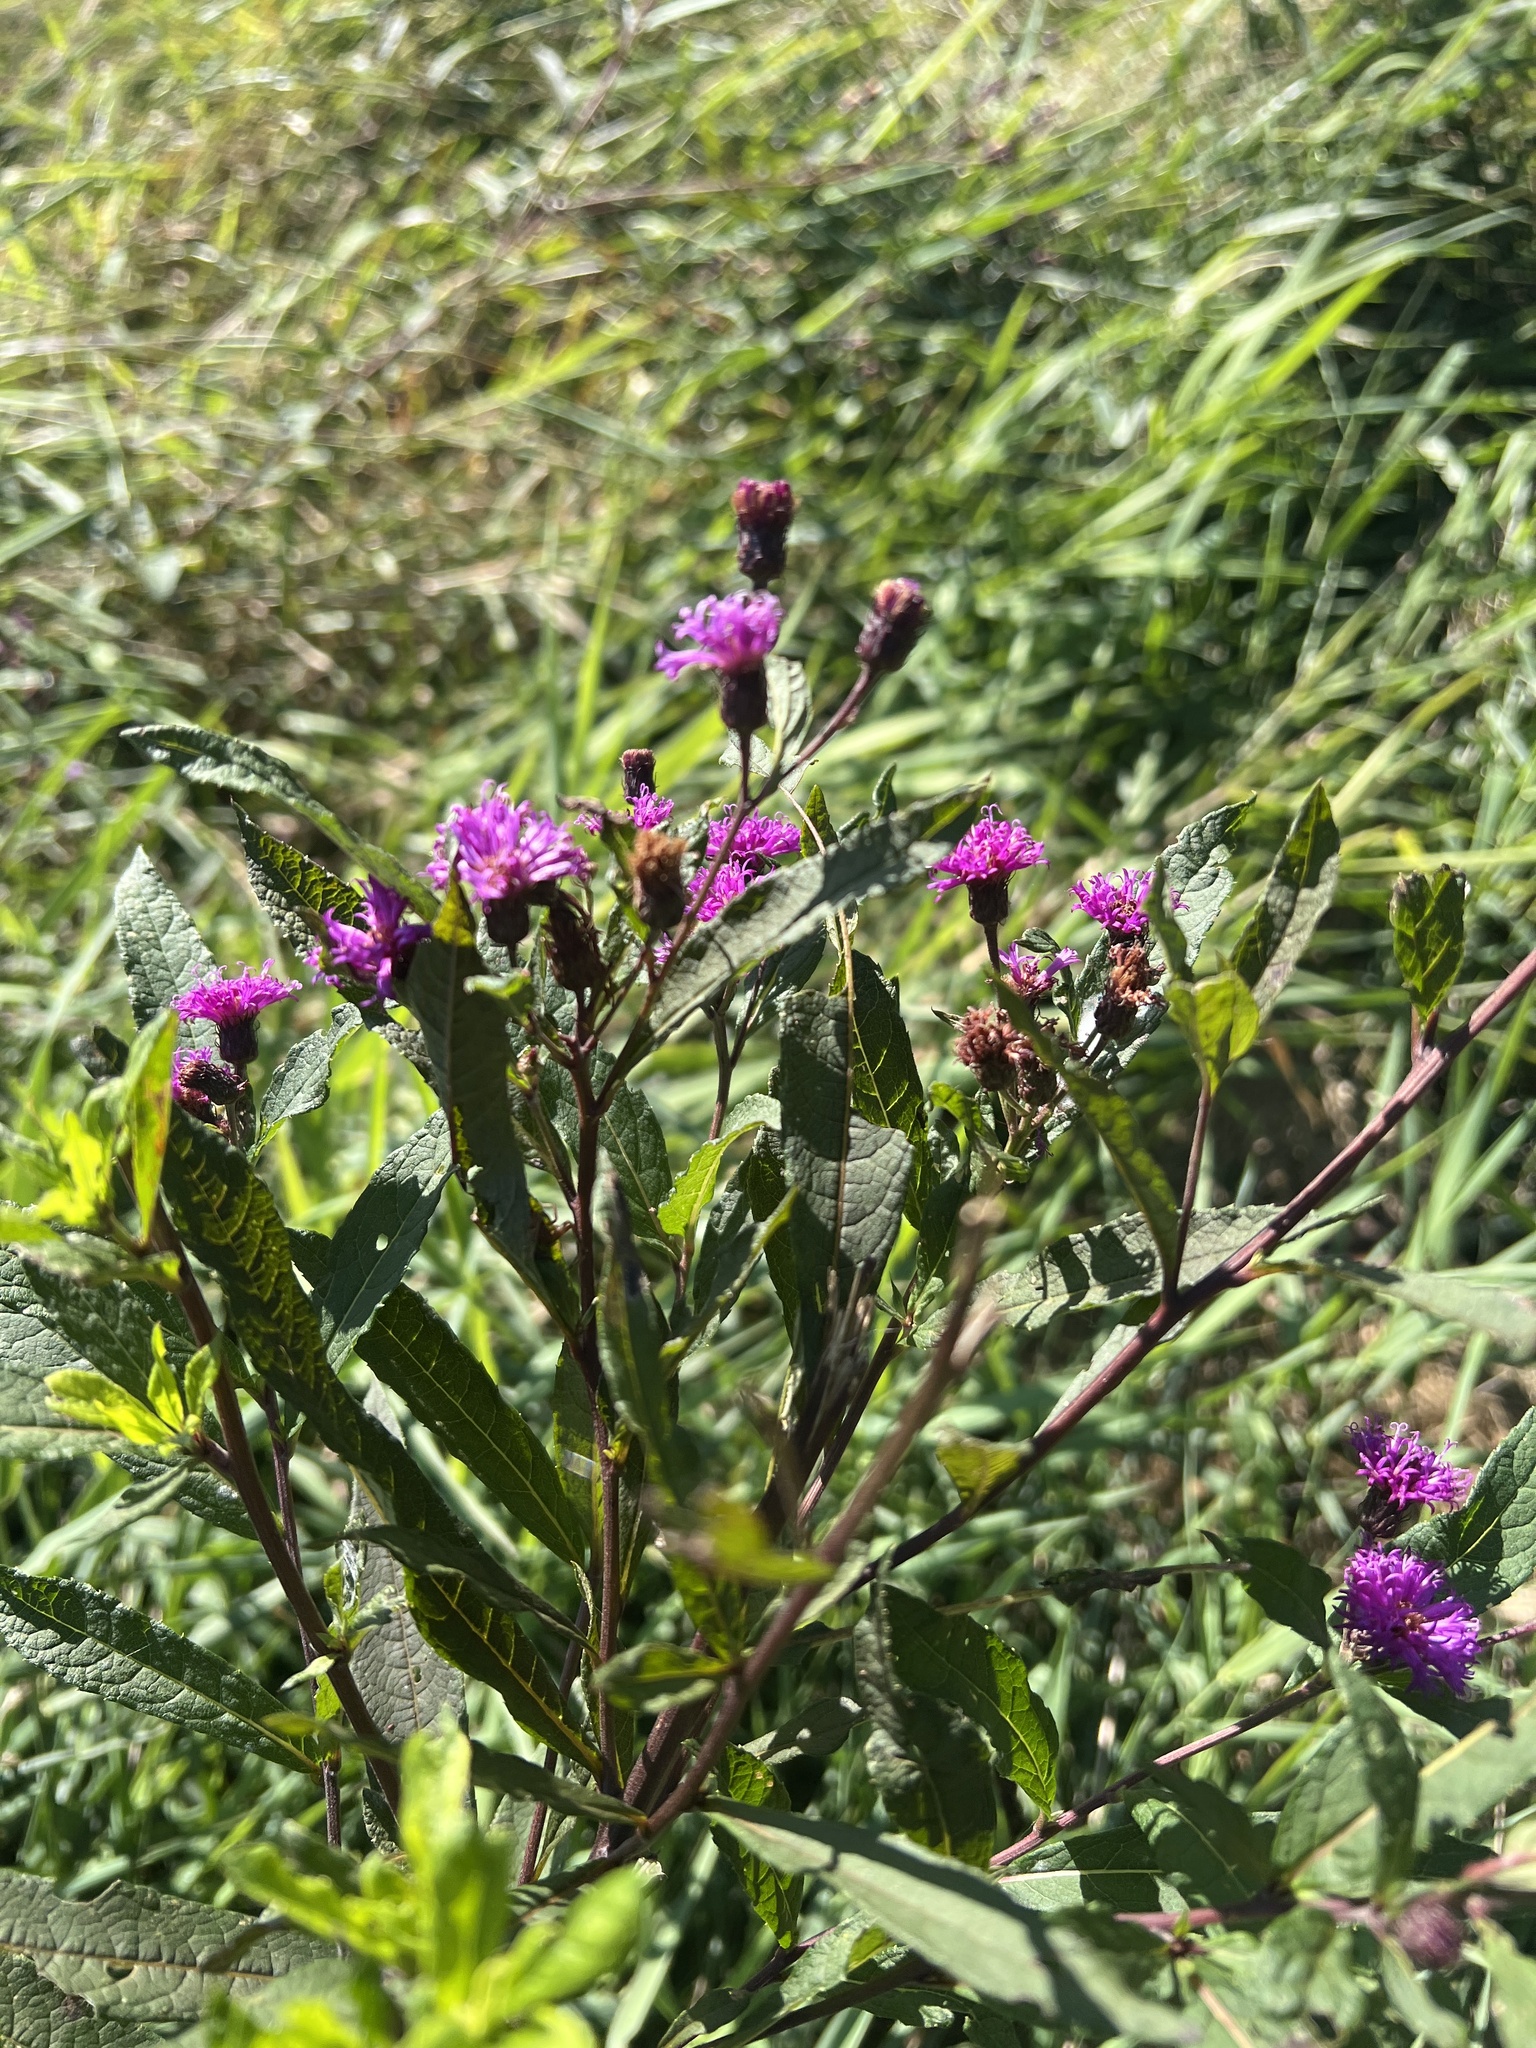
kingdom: Plantae
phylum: Tracheophyta
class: Magnoliopsida
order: Asterales
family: Asteraceae
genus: Vernonia
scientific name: Vernonia noveboracensis
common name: New york ironweed
